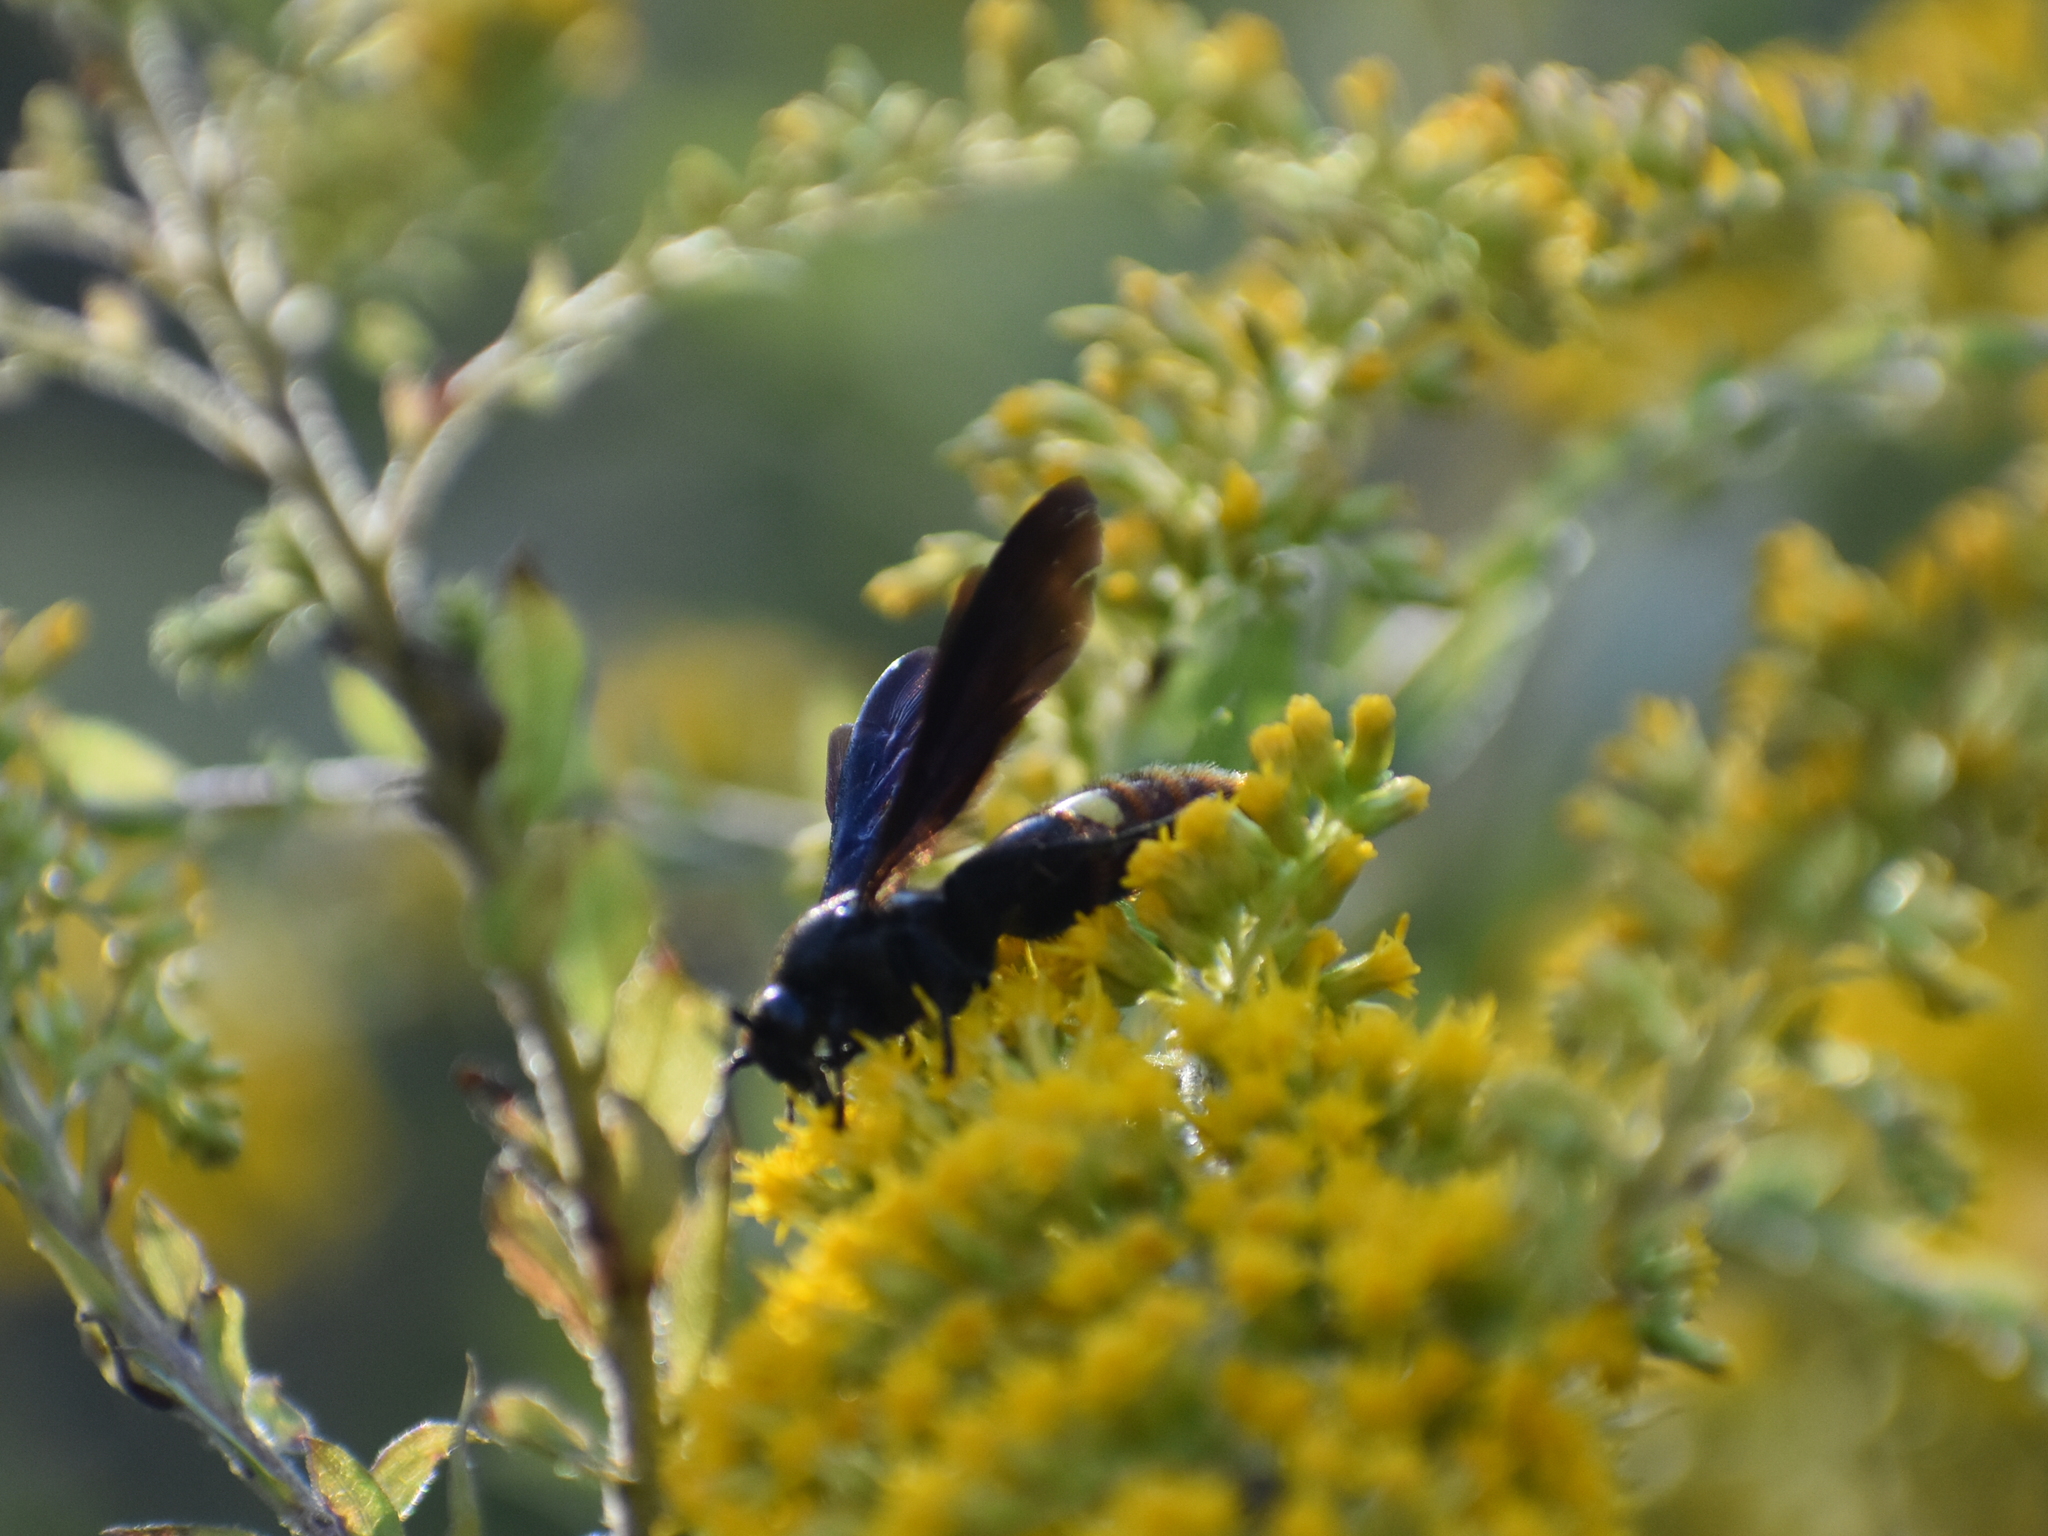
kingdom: Animalia
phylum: Arthropoda
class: Insecta
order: Hymenoptera
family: Scoliidae
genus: Scolia
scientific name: Scolia dubia
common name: Blue-winged scoliid wasp
